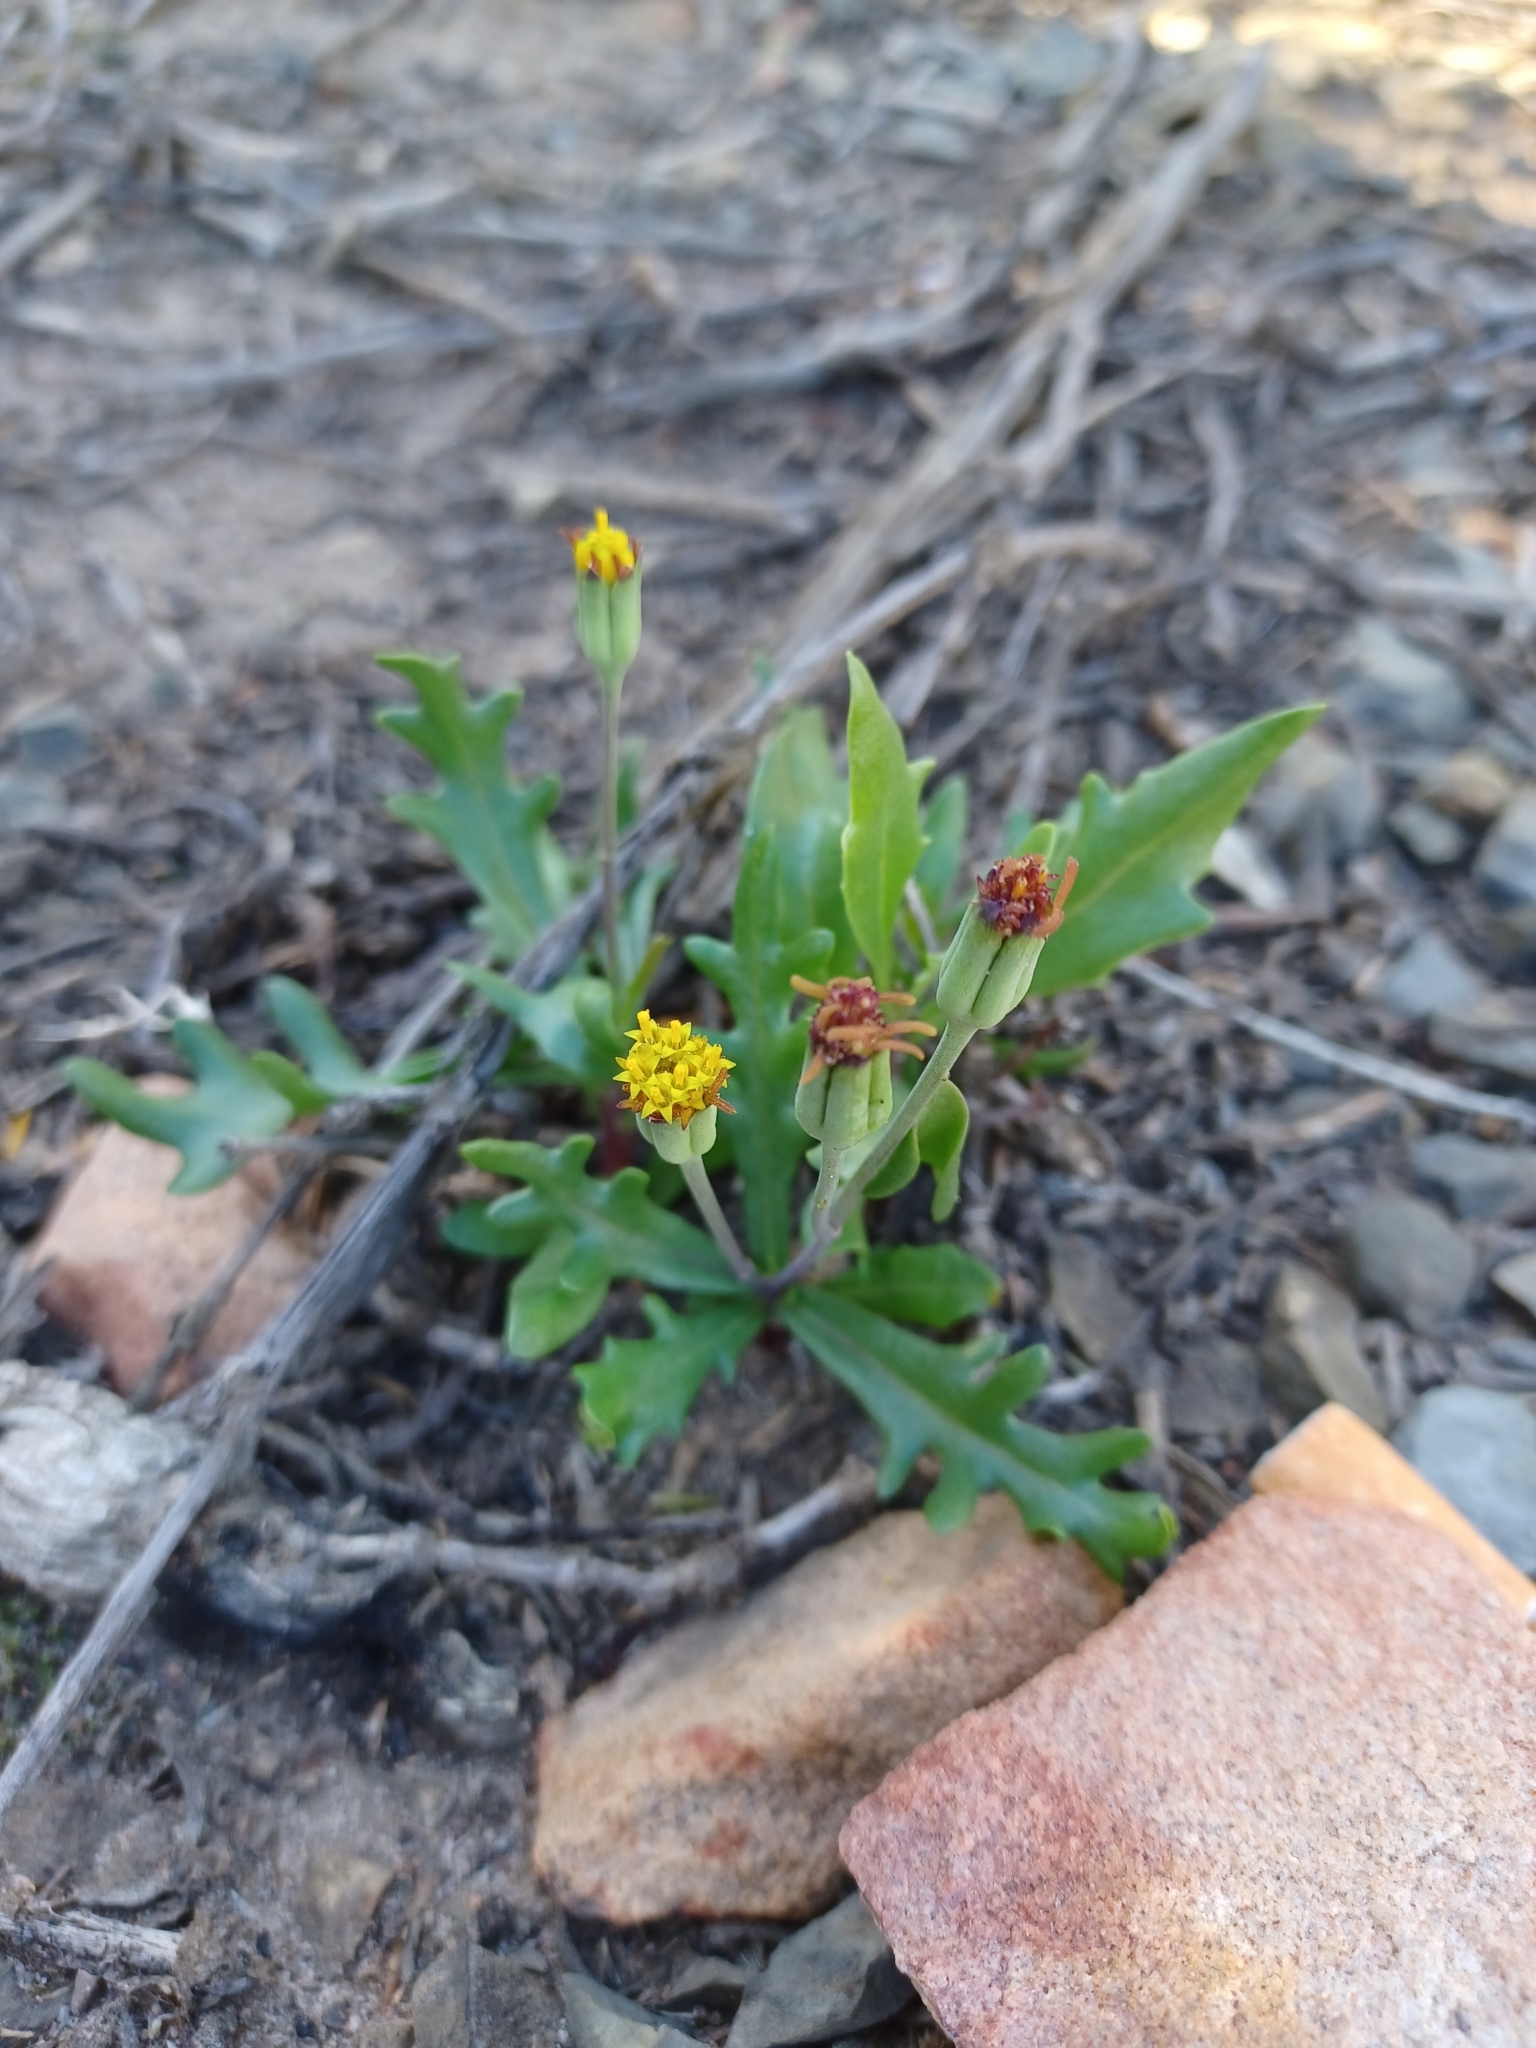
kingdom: Plantae
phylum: Tracheophyta
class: Magnoliopsida
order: Asterales
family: Asteraceae
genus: Othonna
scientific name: Othonna retrofracta
